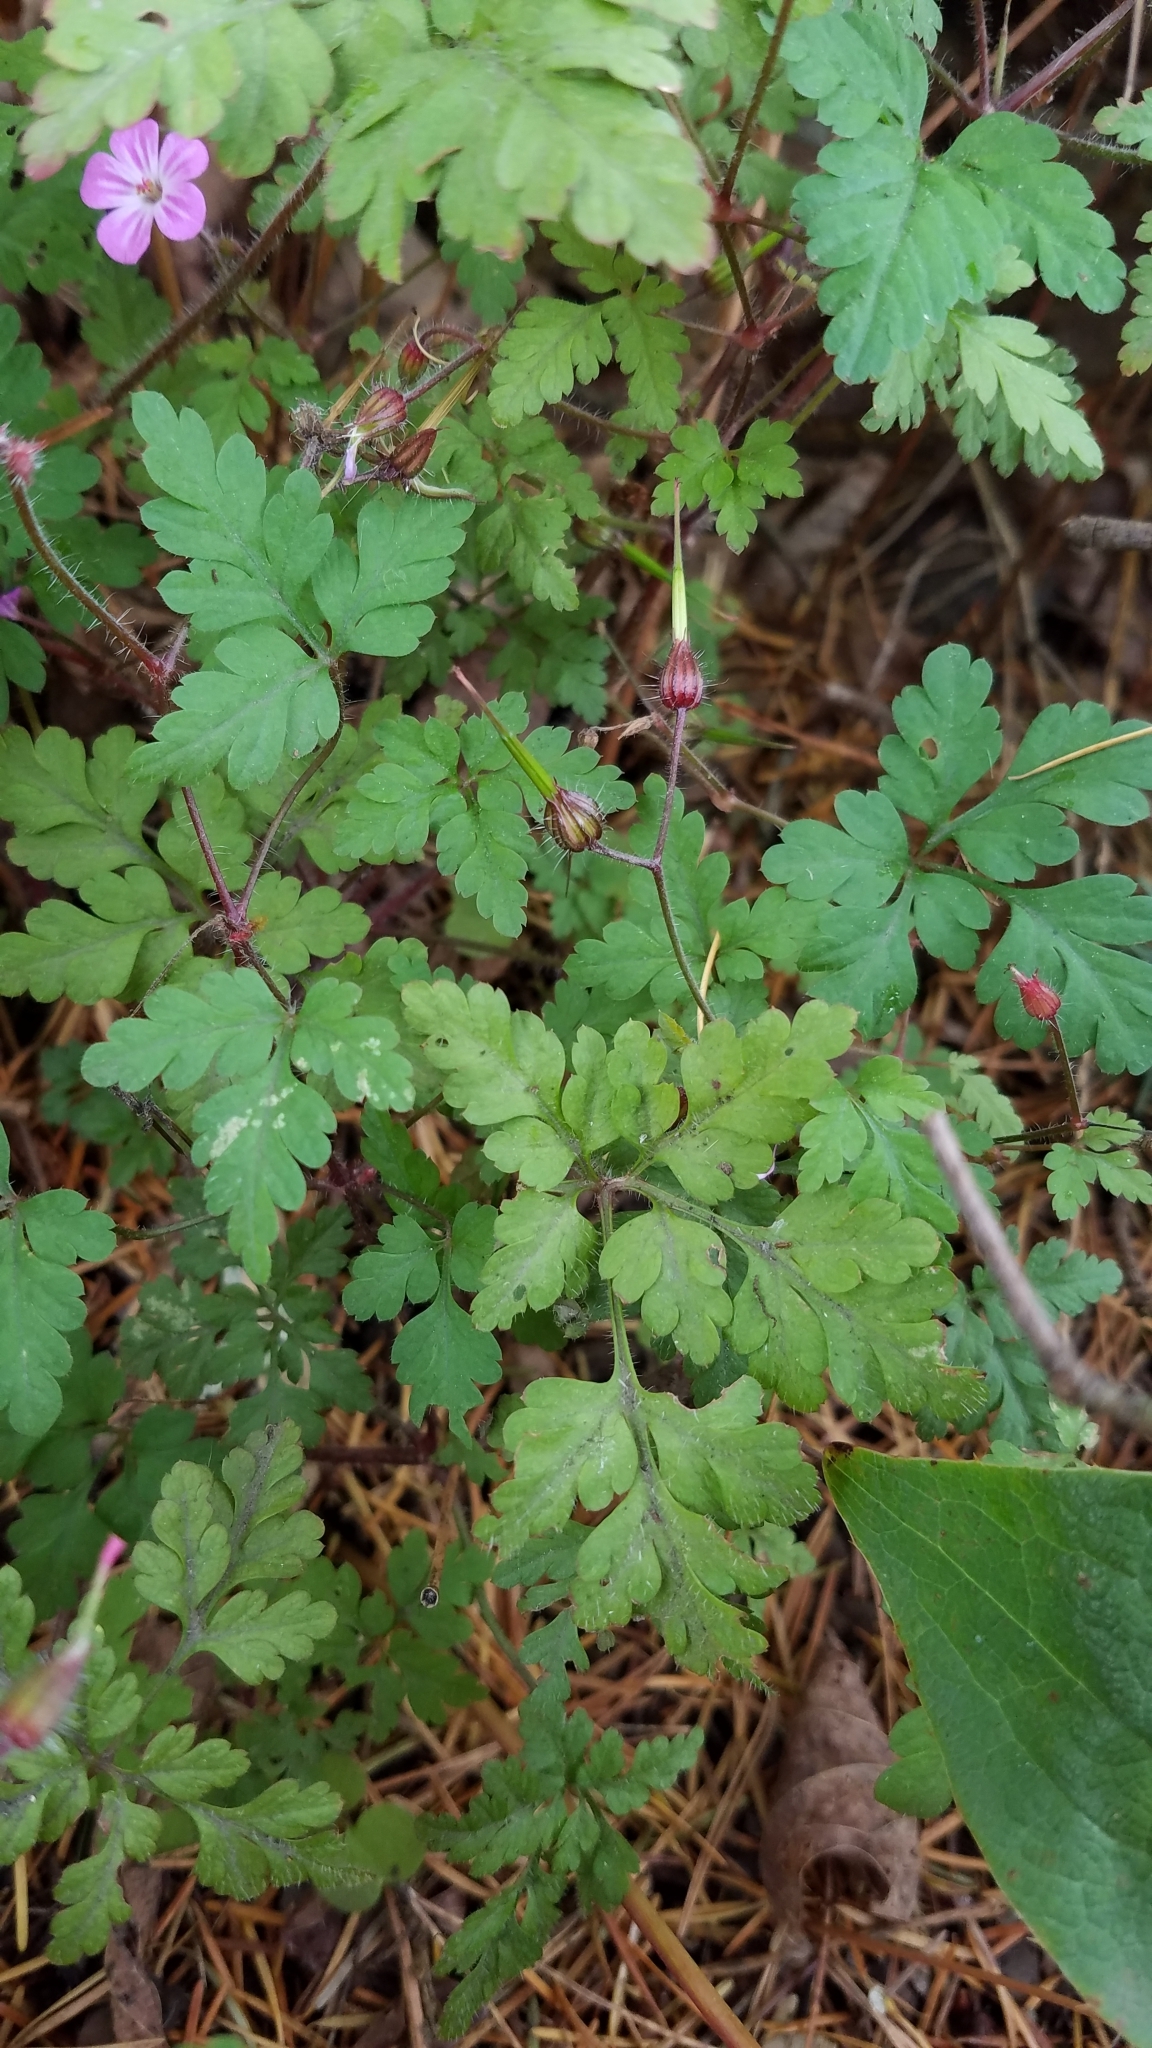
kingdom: Plantae
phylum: Tracheophyta
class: Magnoliopsida
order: Geraniales
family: Geraniaceae
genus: Geranium
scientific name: Geranium robertianum
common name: Herb-robert
